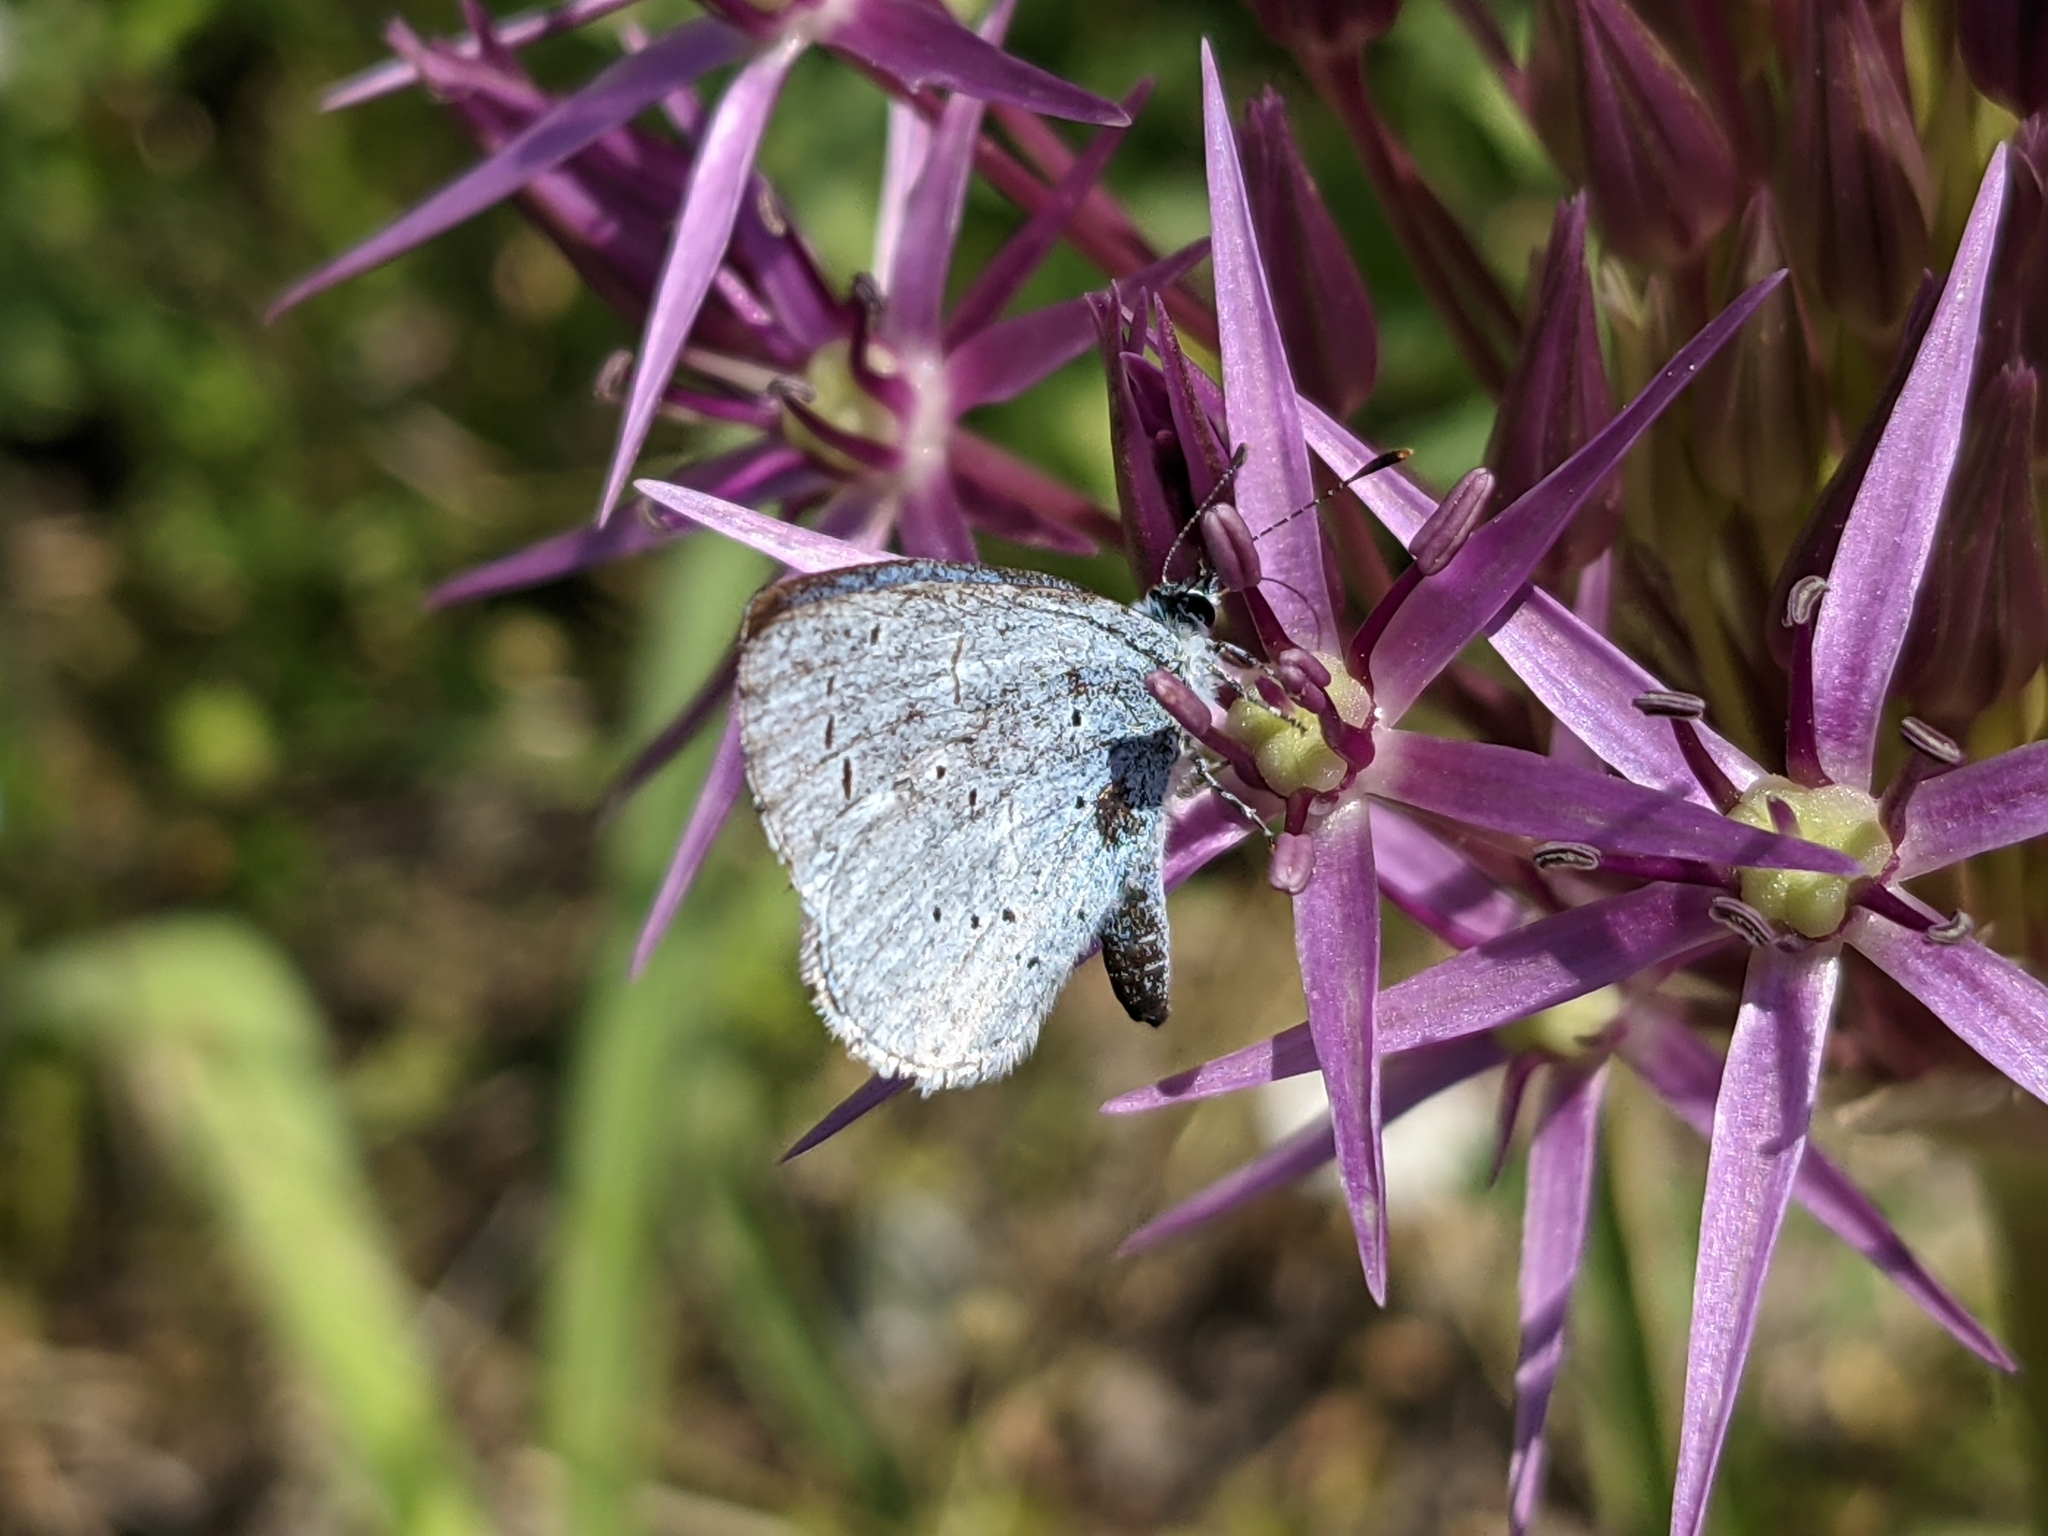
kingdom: Animalia
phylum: Arthropoda
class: Insecta
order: Lepidoptera
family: Lycaenidae
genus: Celastrina
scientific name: Celastrina argiolus
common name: Holly blue
